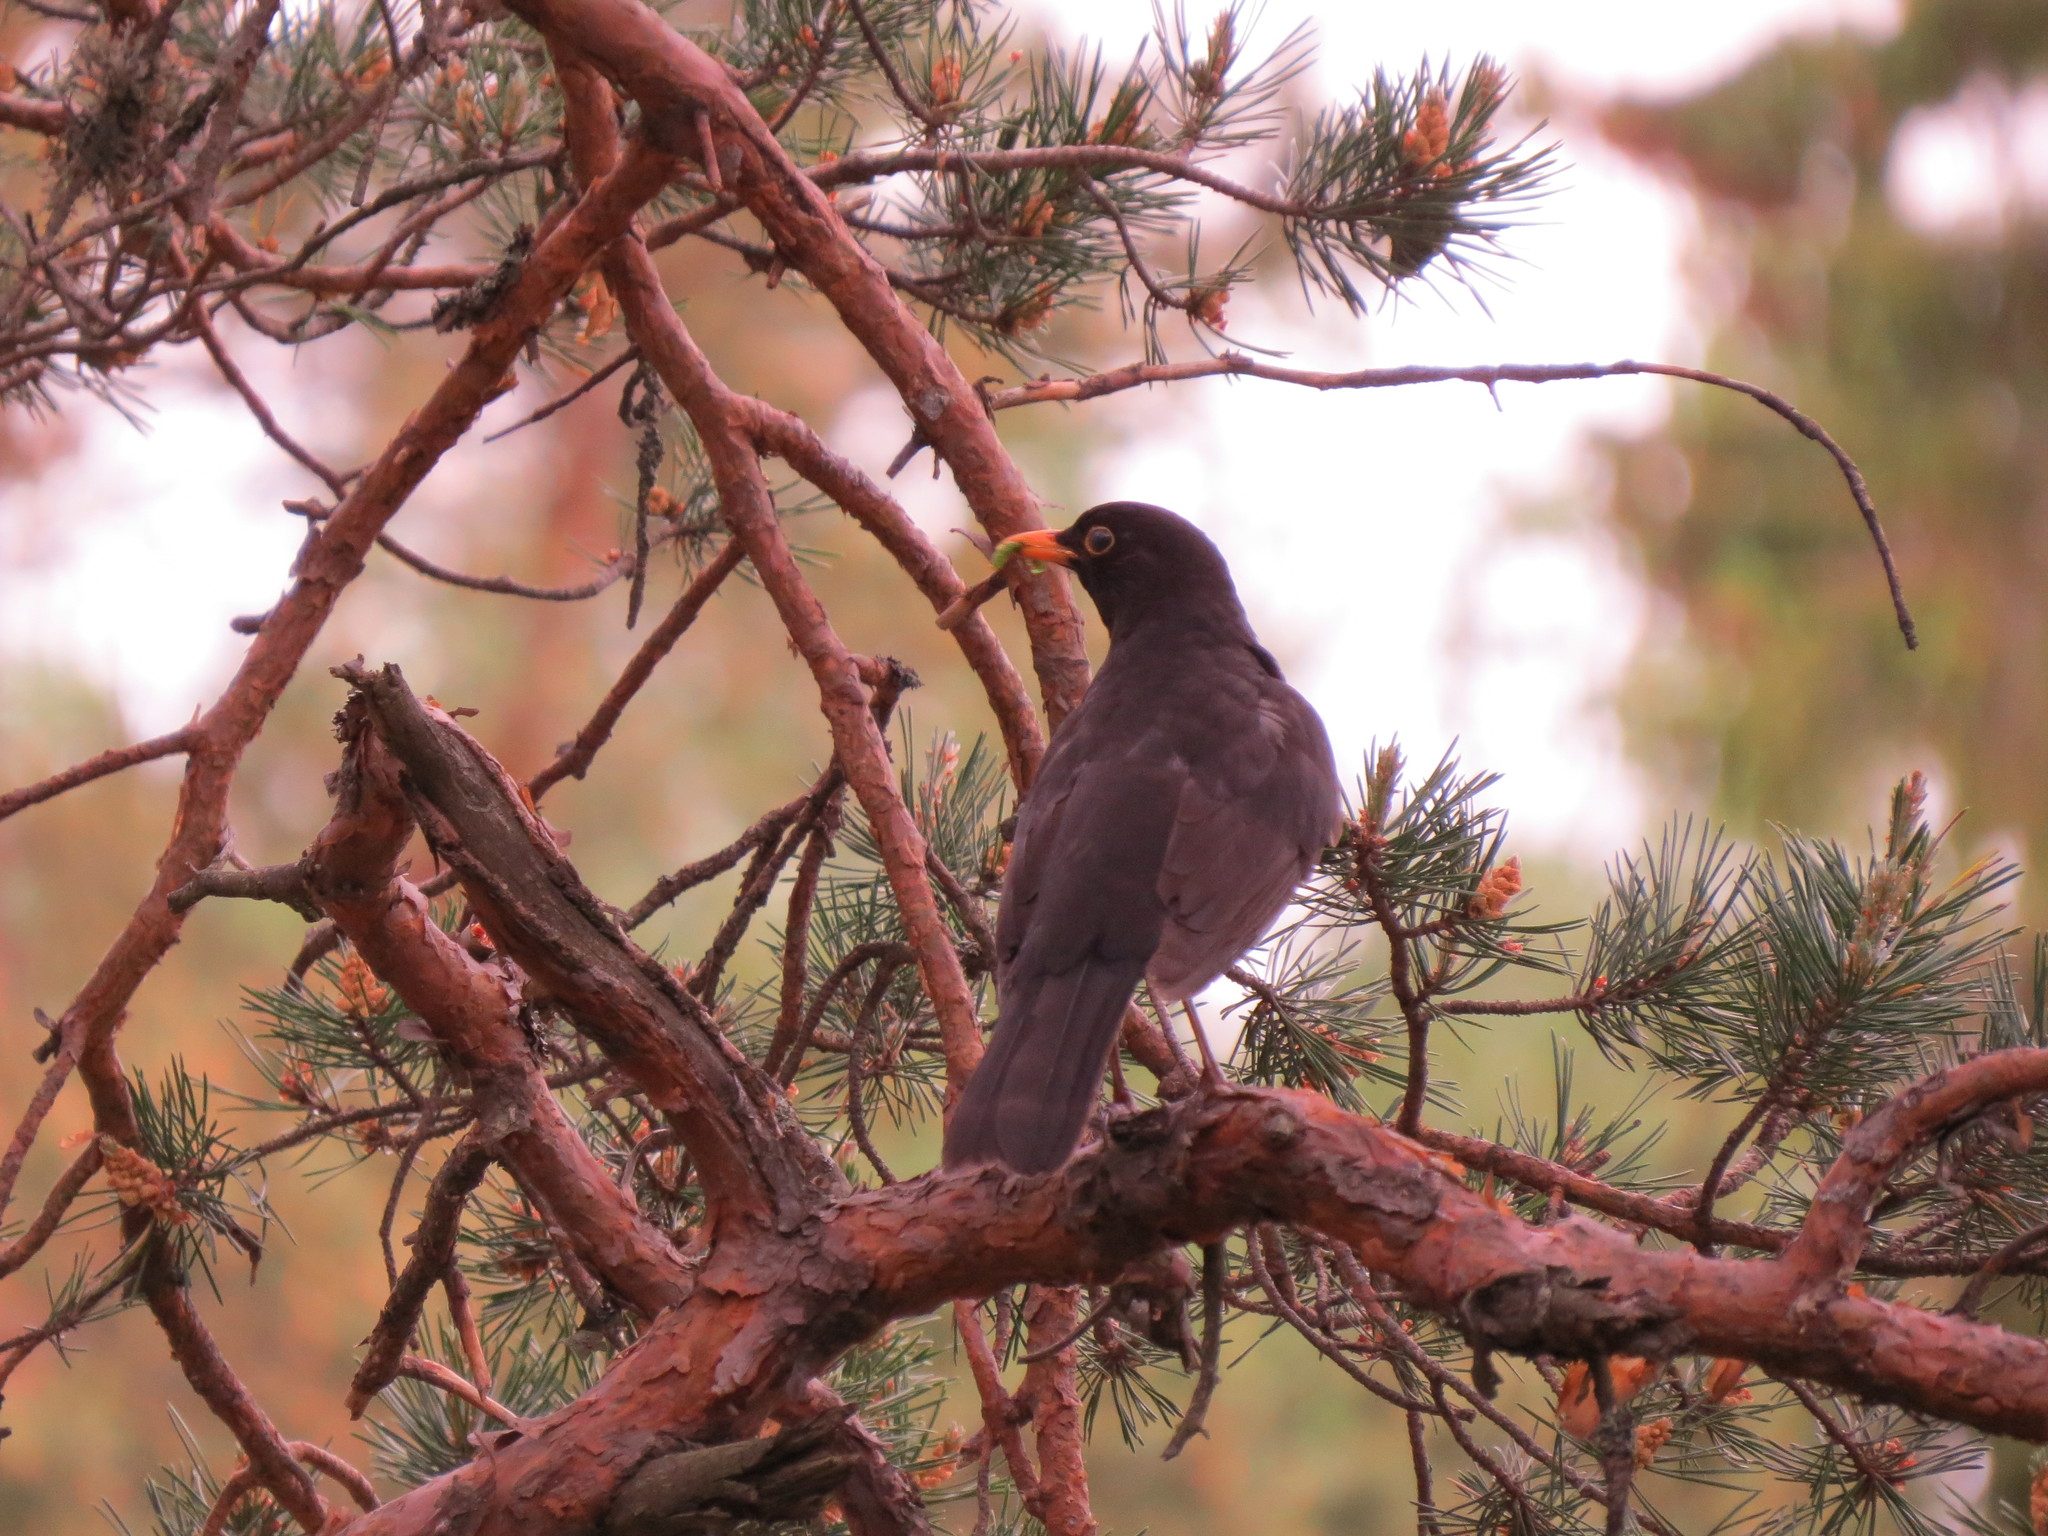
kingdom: Animalia
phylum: Chordata
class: Aves
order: Passeriformes
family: Turdidae
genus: Turdus
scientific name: Turdus merula
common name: Common blackbird
